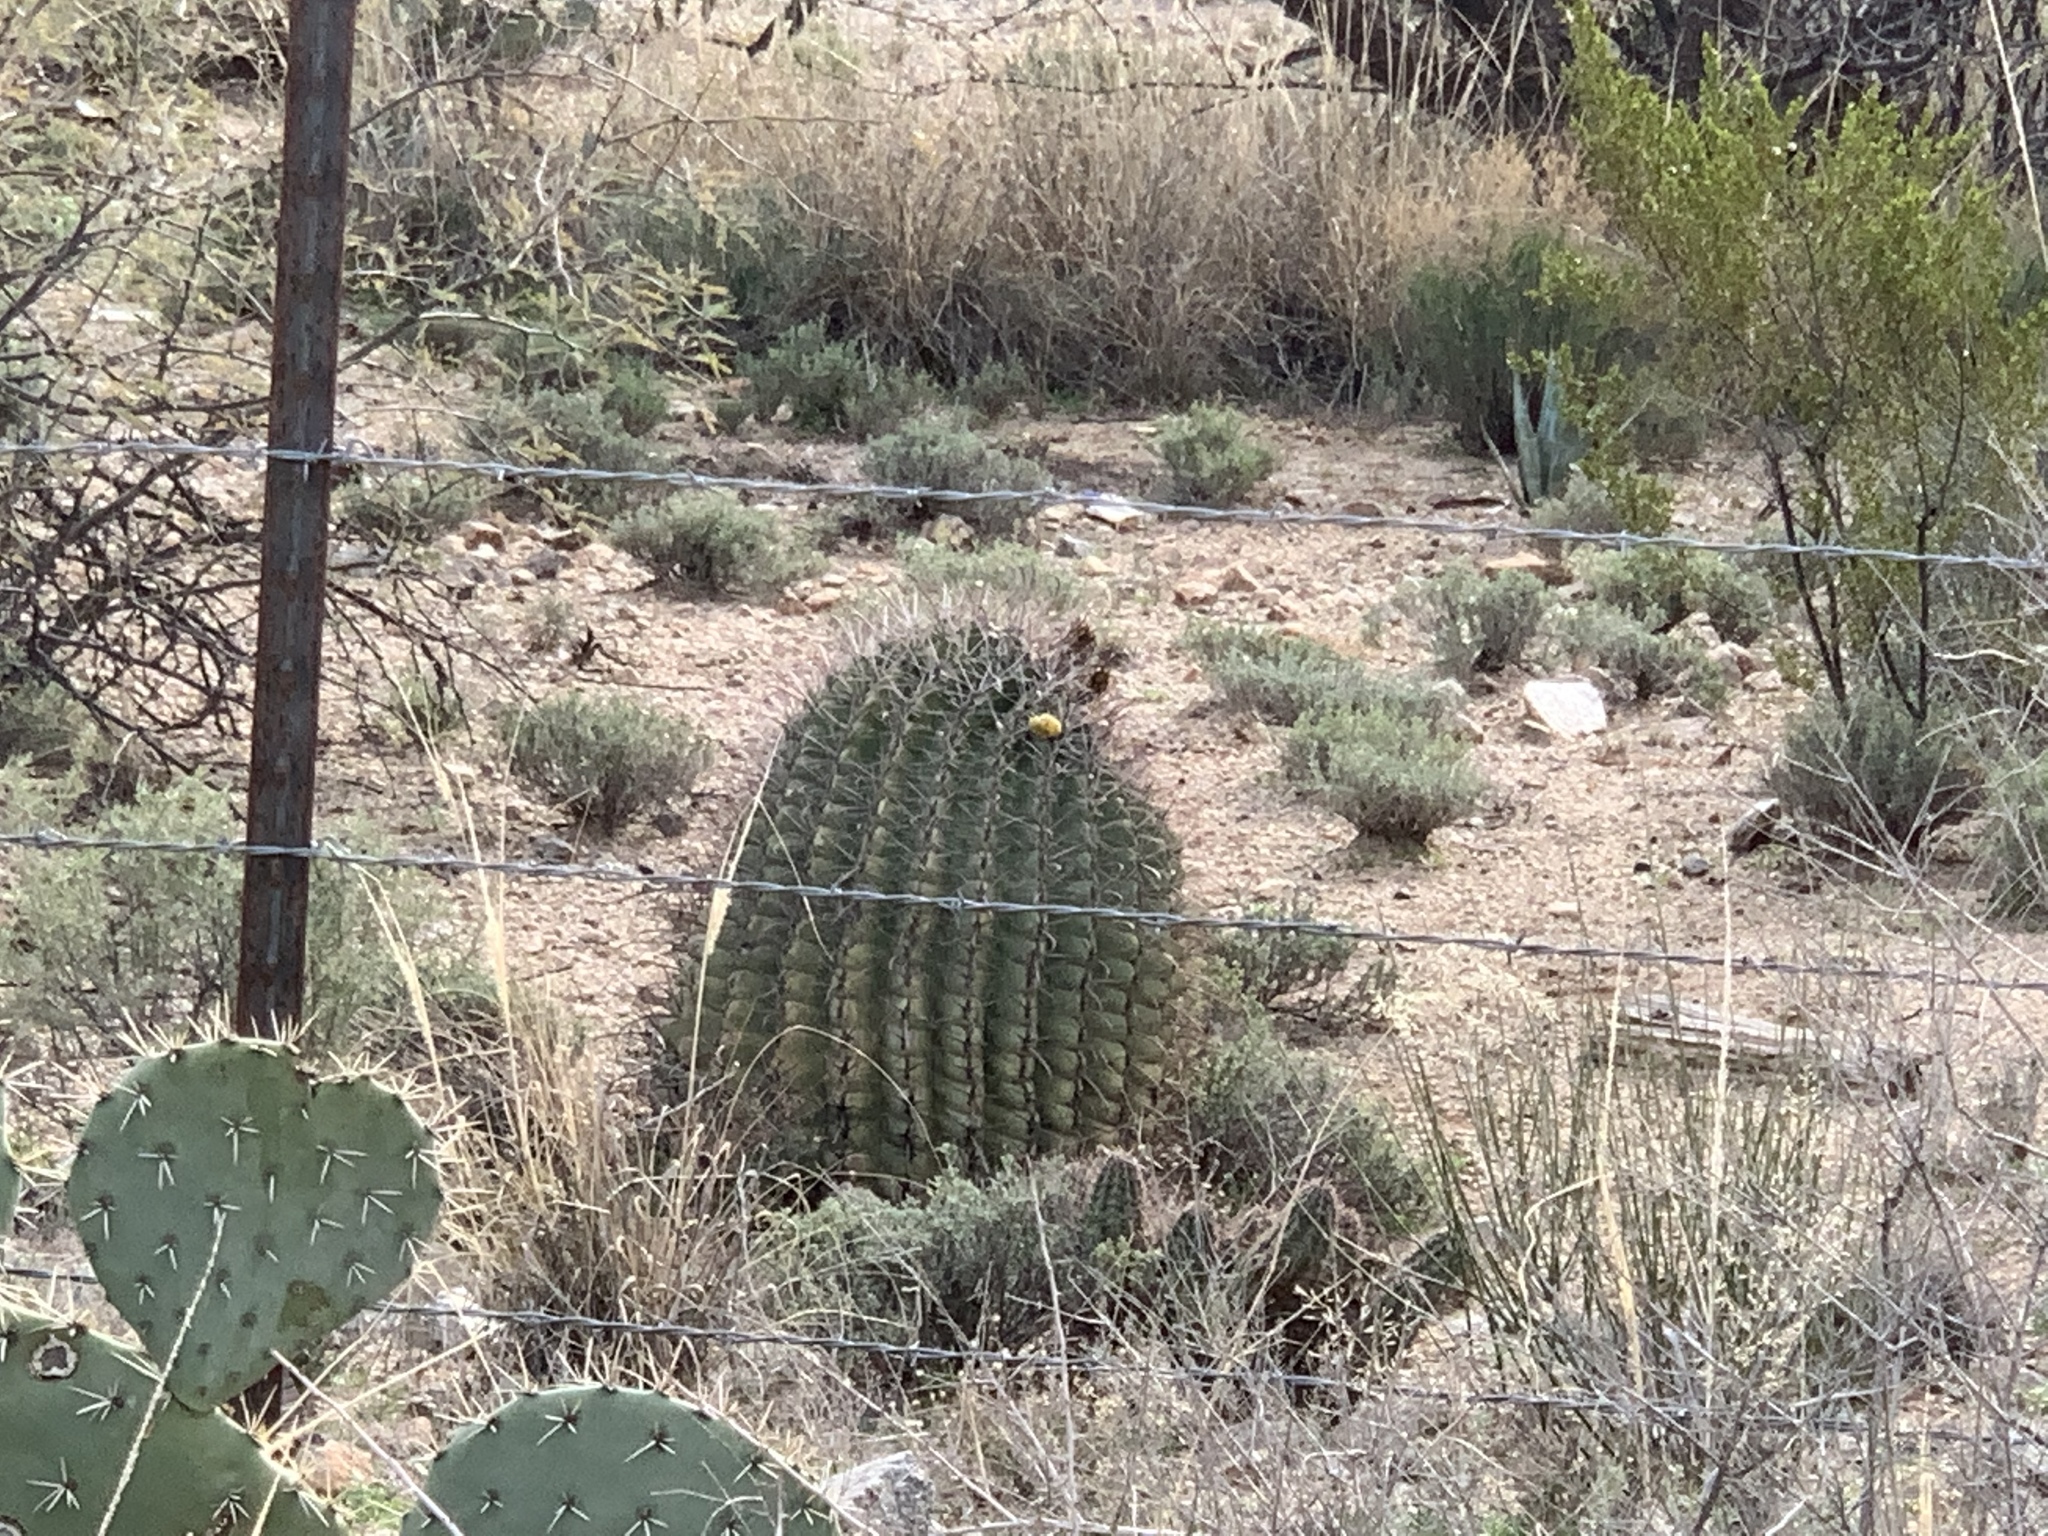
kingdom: Plantae
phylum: Tracheophyta
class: Magnoliopsida
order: Caryophyllales
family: Cactaceae
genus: Ferocactus
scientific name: Ferocactus wislizeni
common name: Candy barrel cactus
